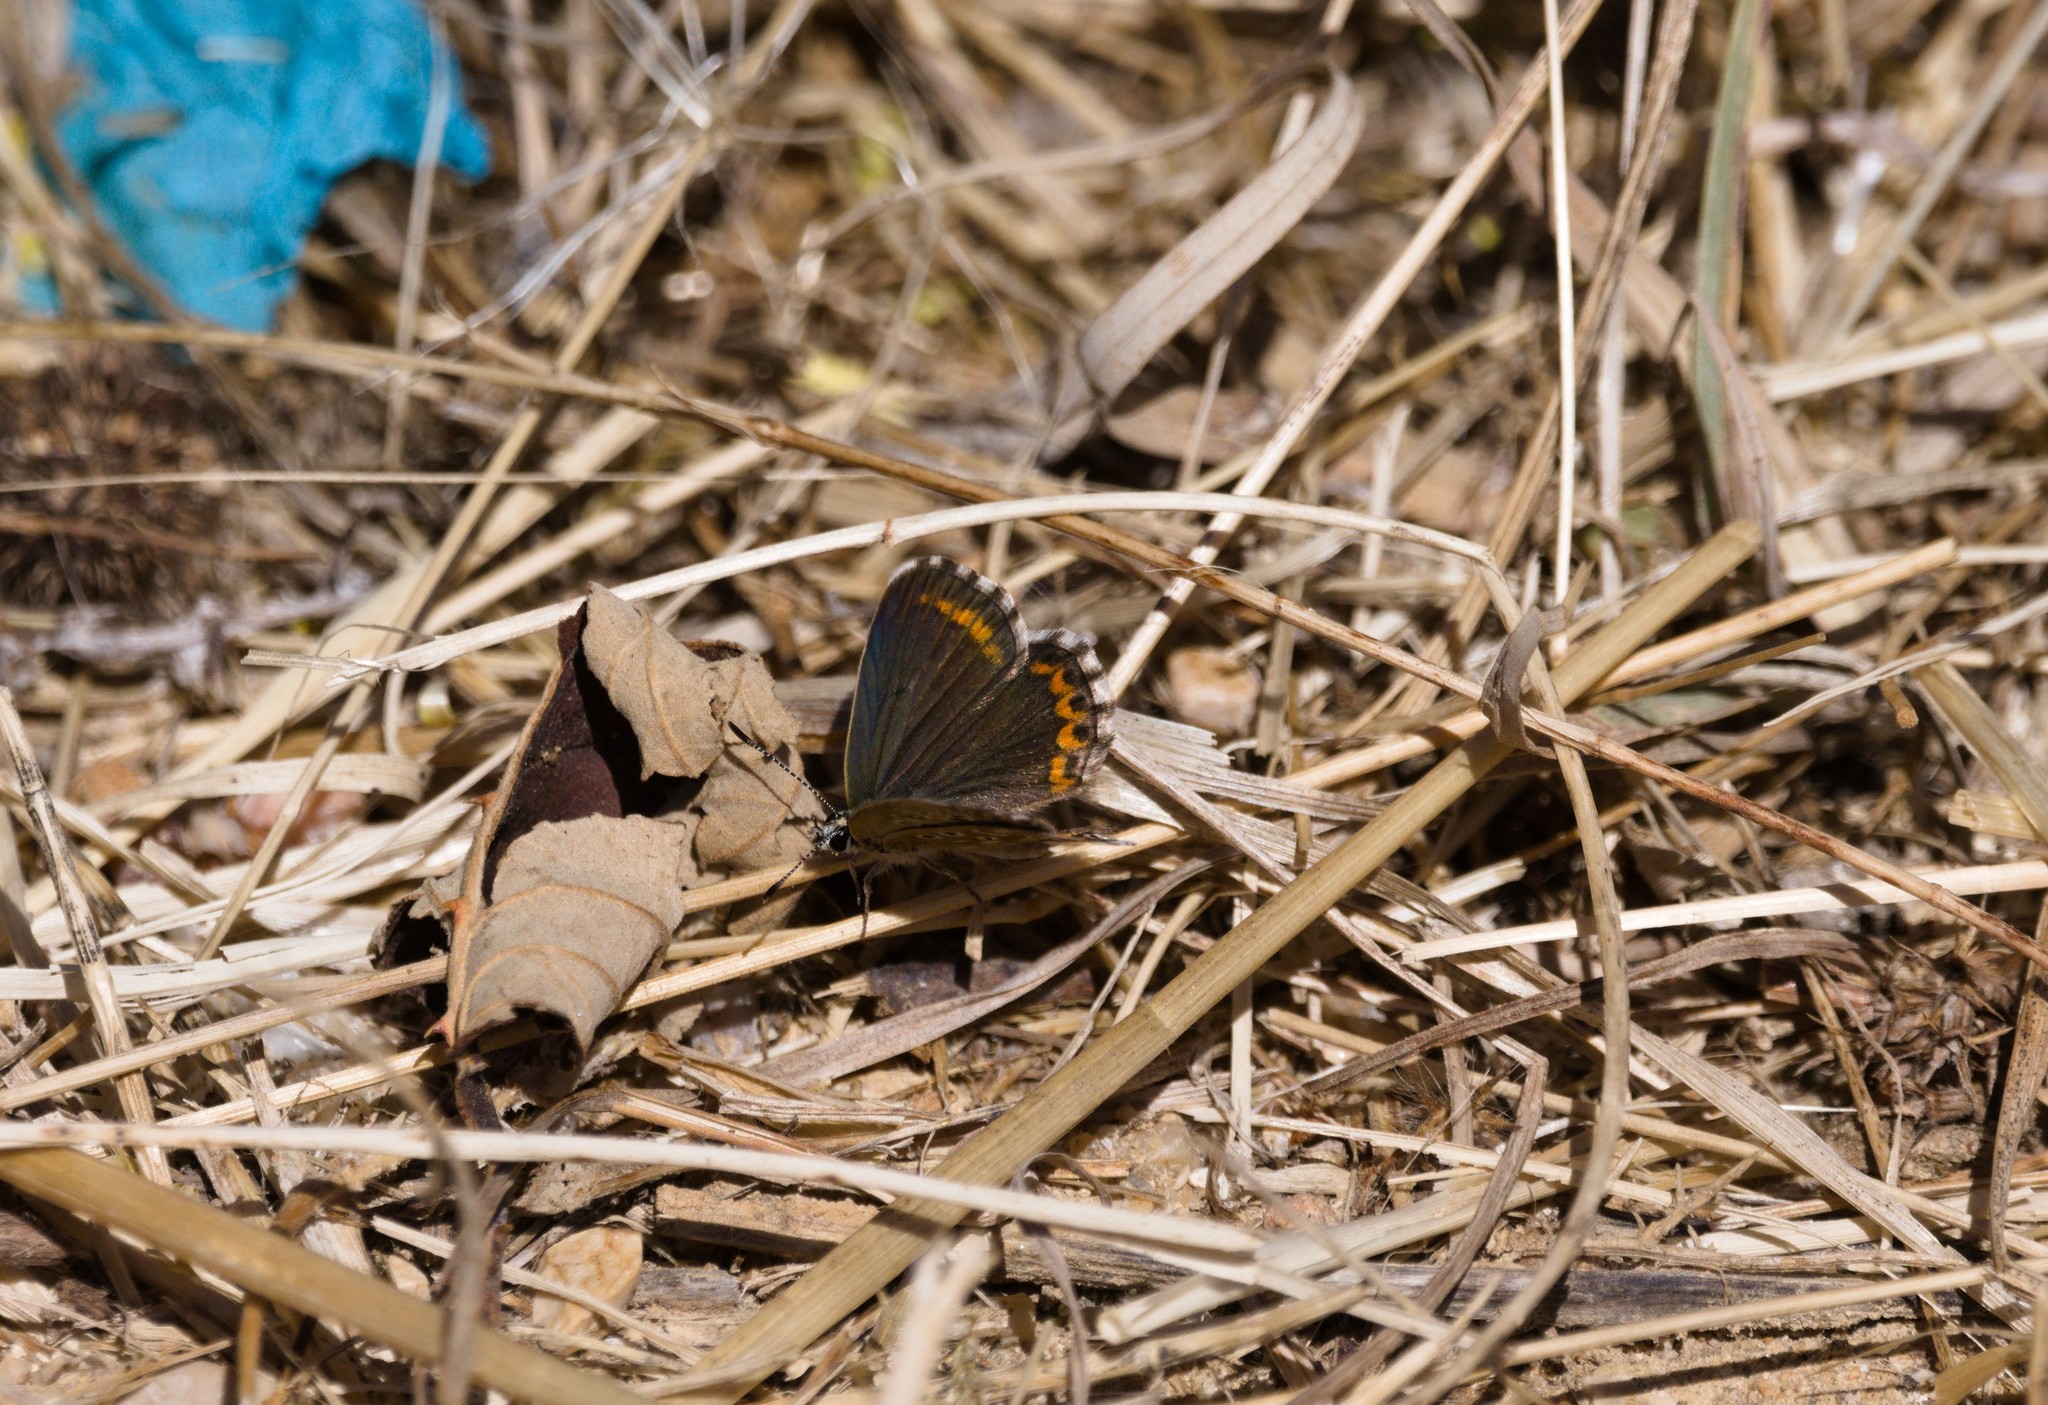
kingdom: Animalia
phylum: Arthropoda
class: Insecta
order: Lepidoptera
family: Lycaenidae
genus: Aricia
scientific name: Aricia cramera
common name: Eschscholtz´s brown  argus
